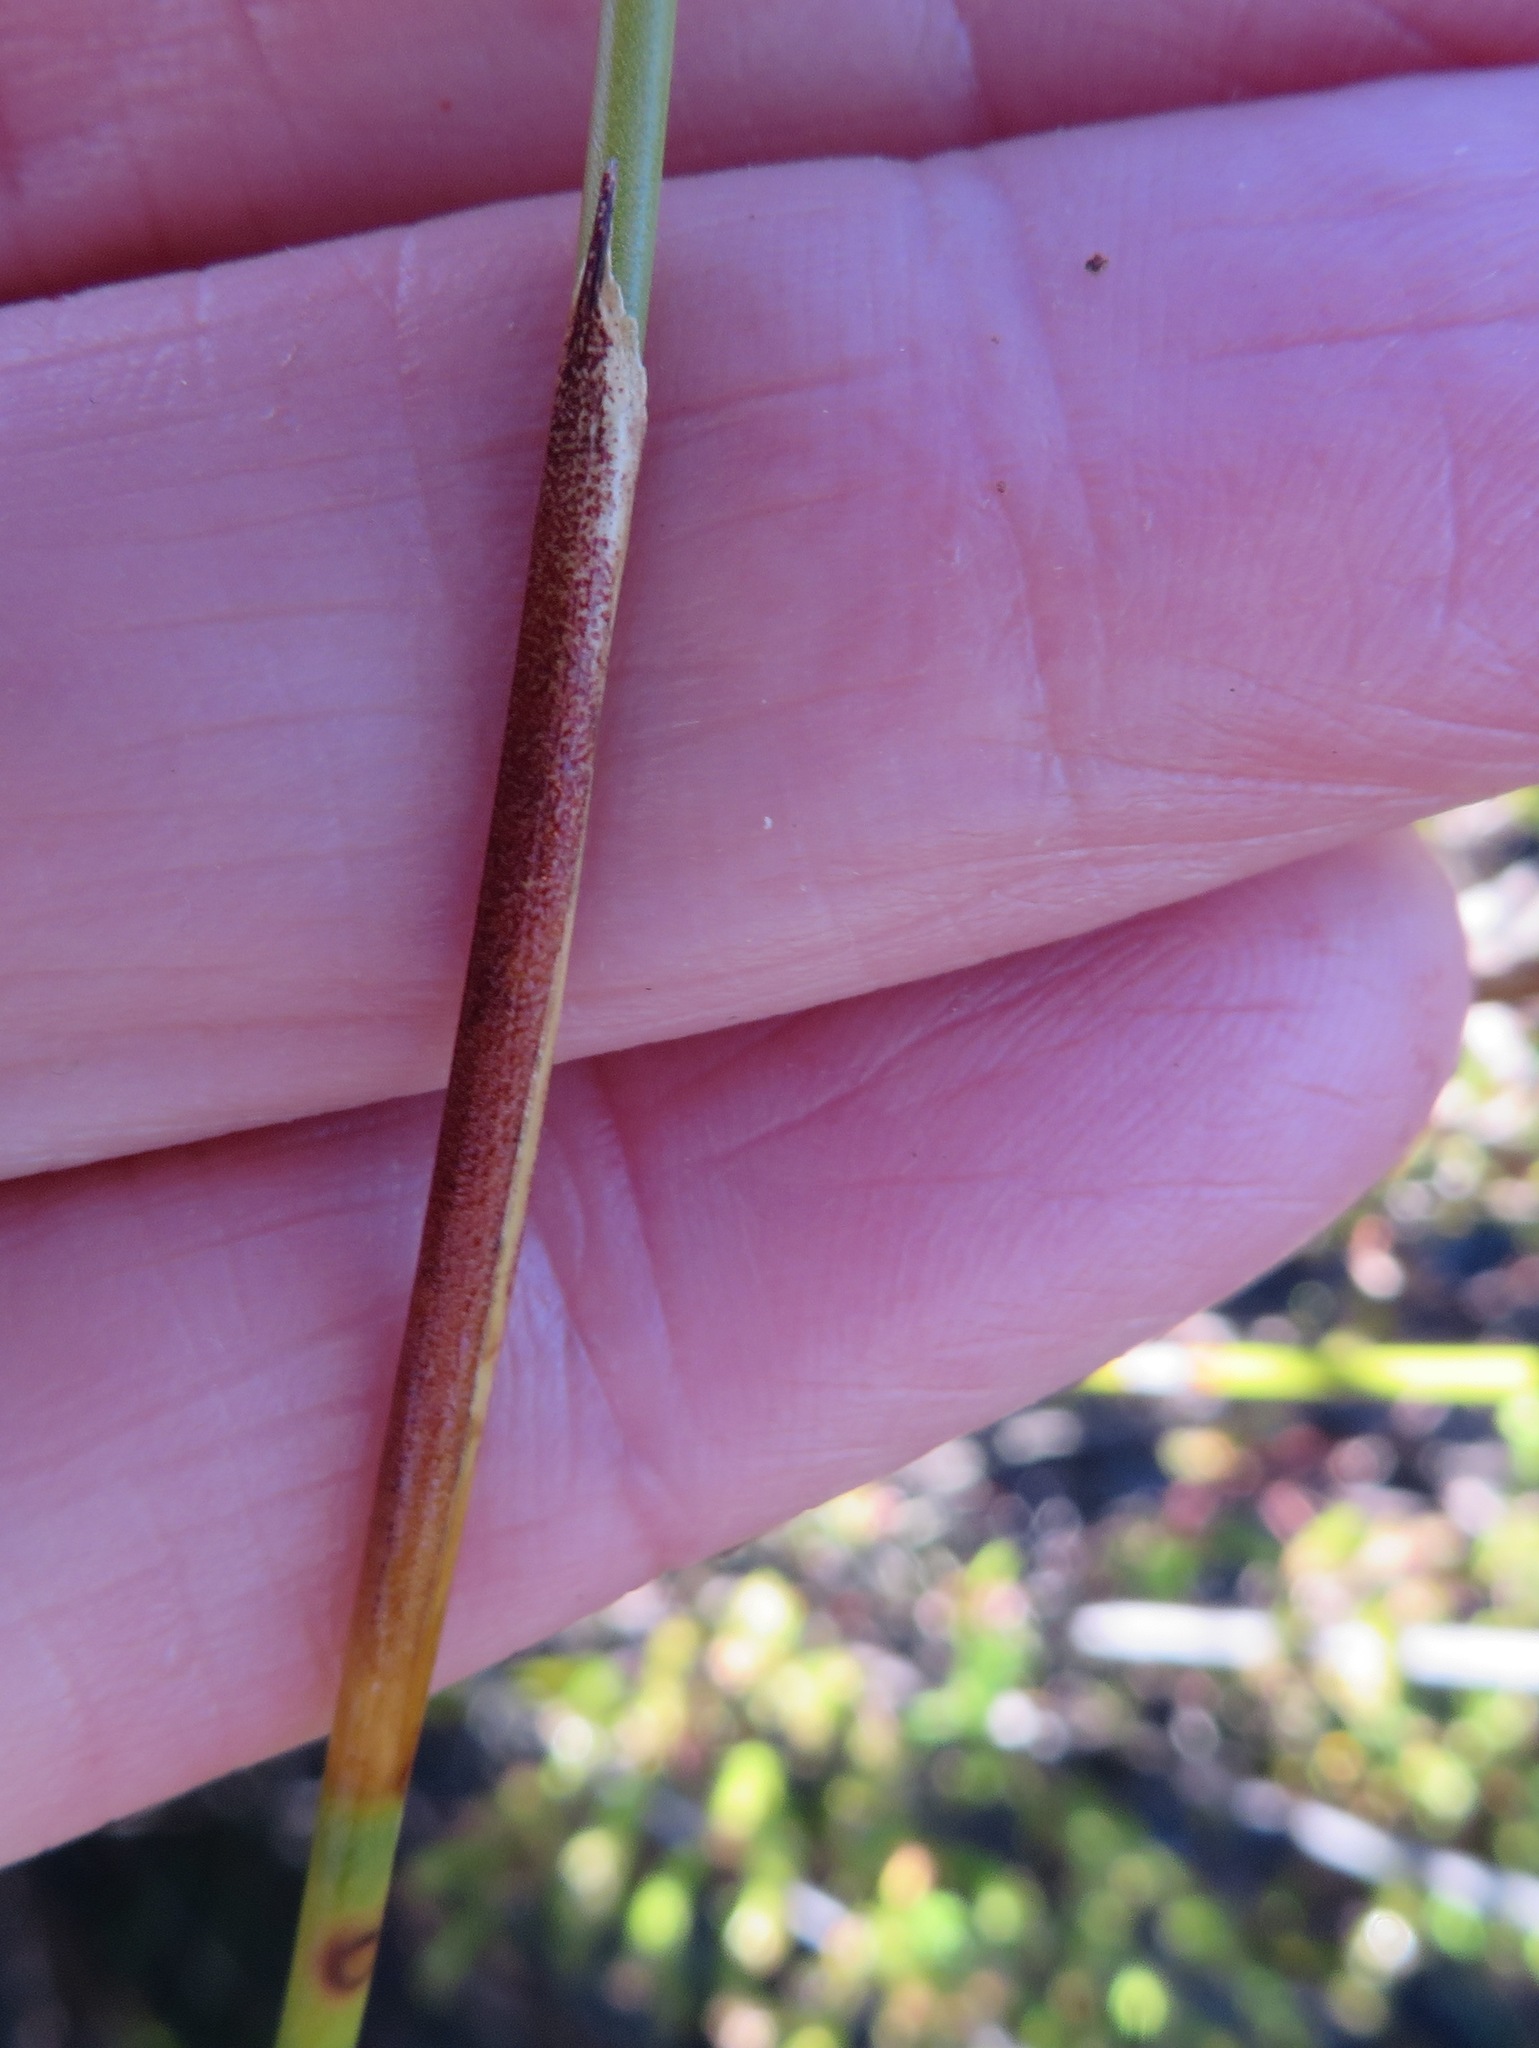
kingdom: Plantae
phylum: Tracheophyta
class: Liliopsida
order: Poales
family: Restionaceae
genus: Hypodiscus
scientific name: Hypodiscus aristatus
